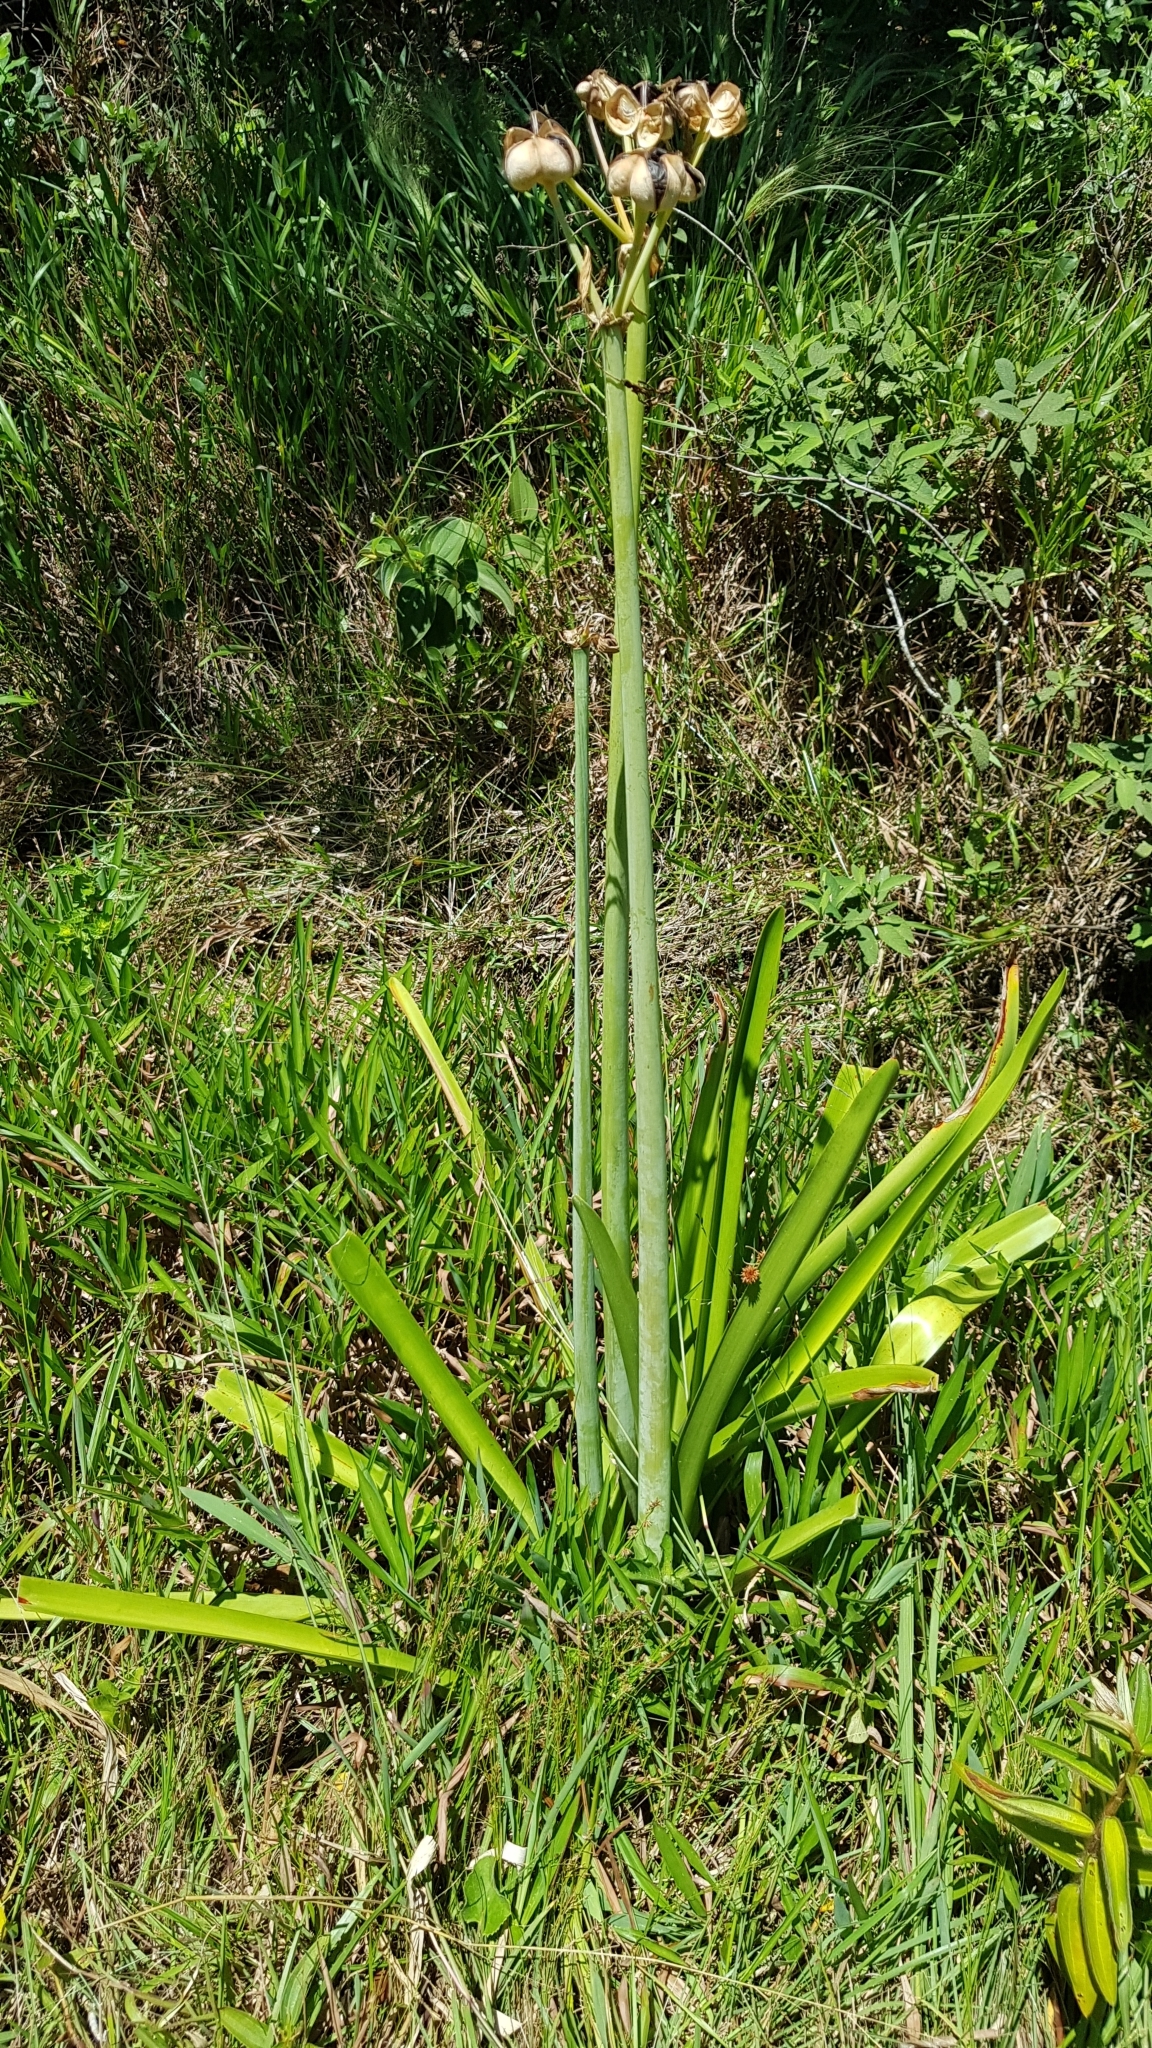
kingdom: Plantae
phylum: Tracheophyta
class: Liliopsida
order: Asparagales
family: Amaryllidaceae
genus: Hippeastrum
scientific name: Hippeastrum breviflorum
